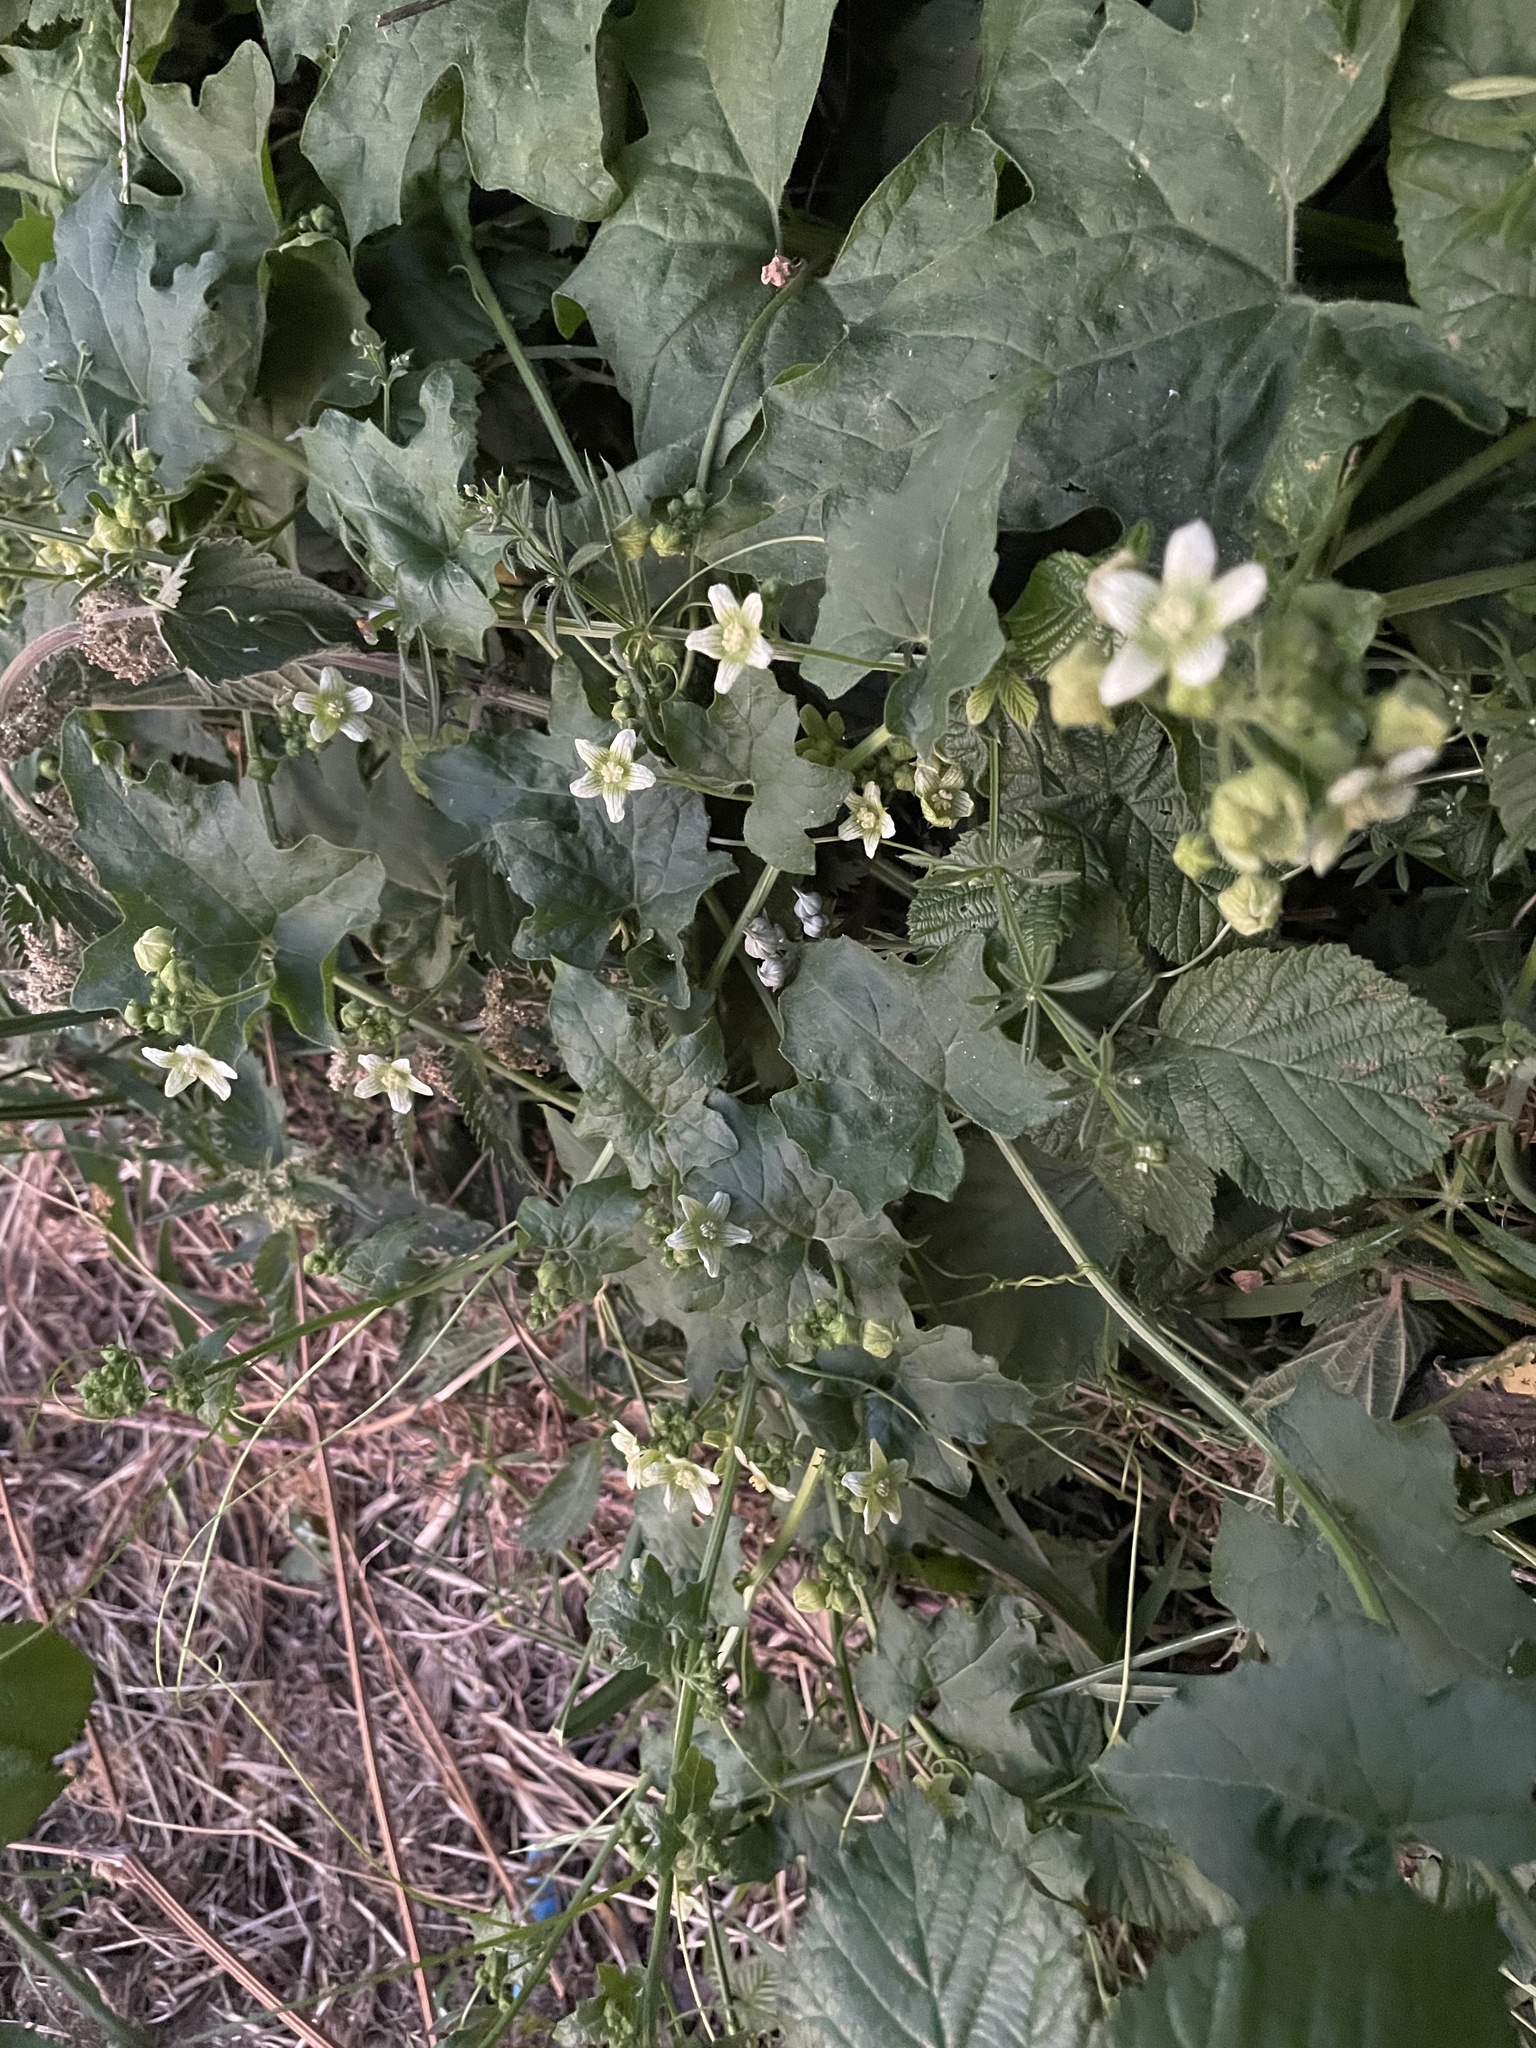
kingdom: Plantae
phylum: Tracheophyta
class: Magnoliopsida
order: Cucurbitales
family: Cucurbitaceae
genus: Bryonia
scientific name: Bryonia cretica
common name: Cretan bryony
